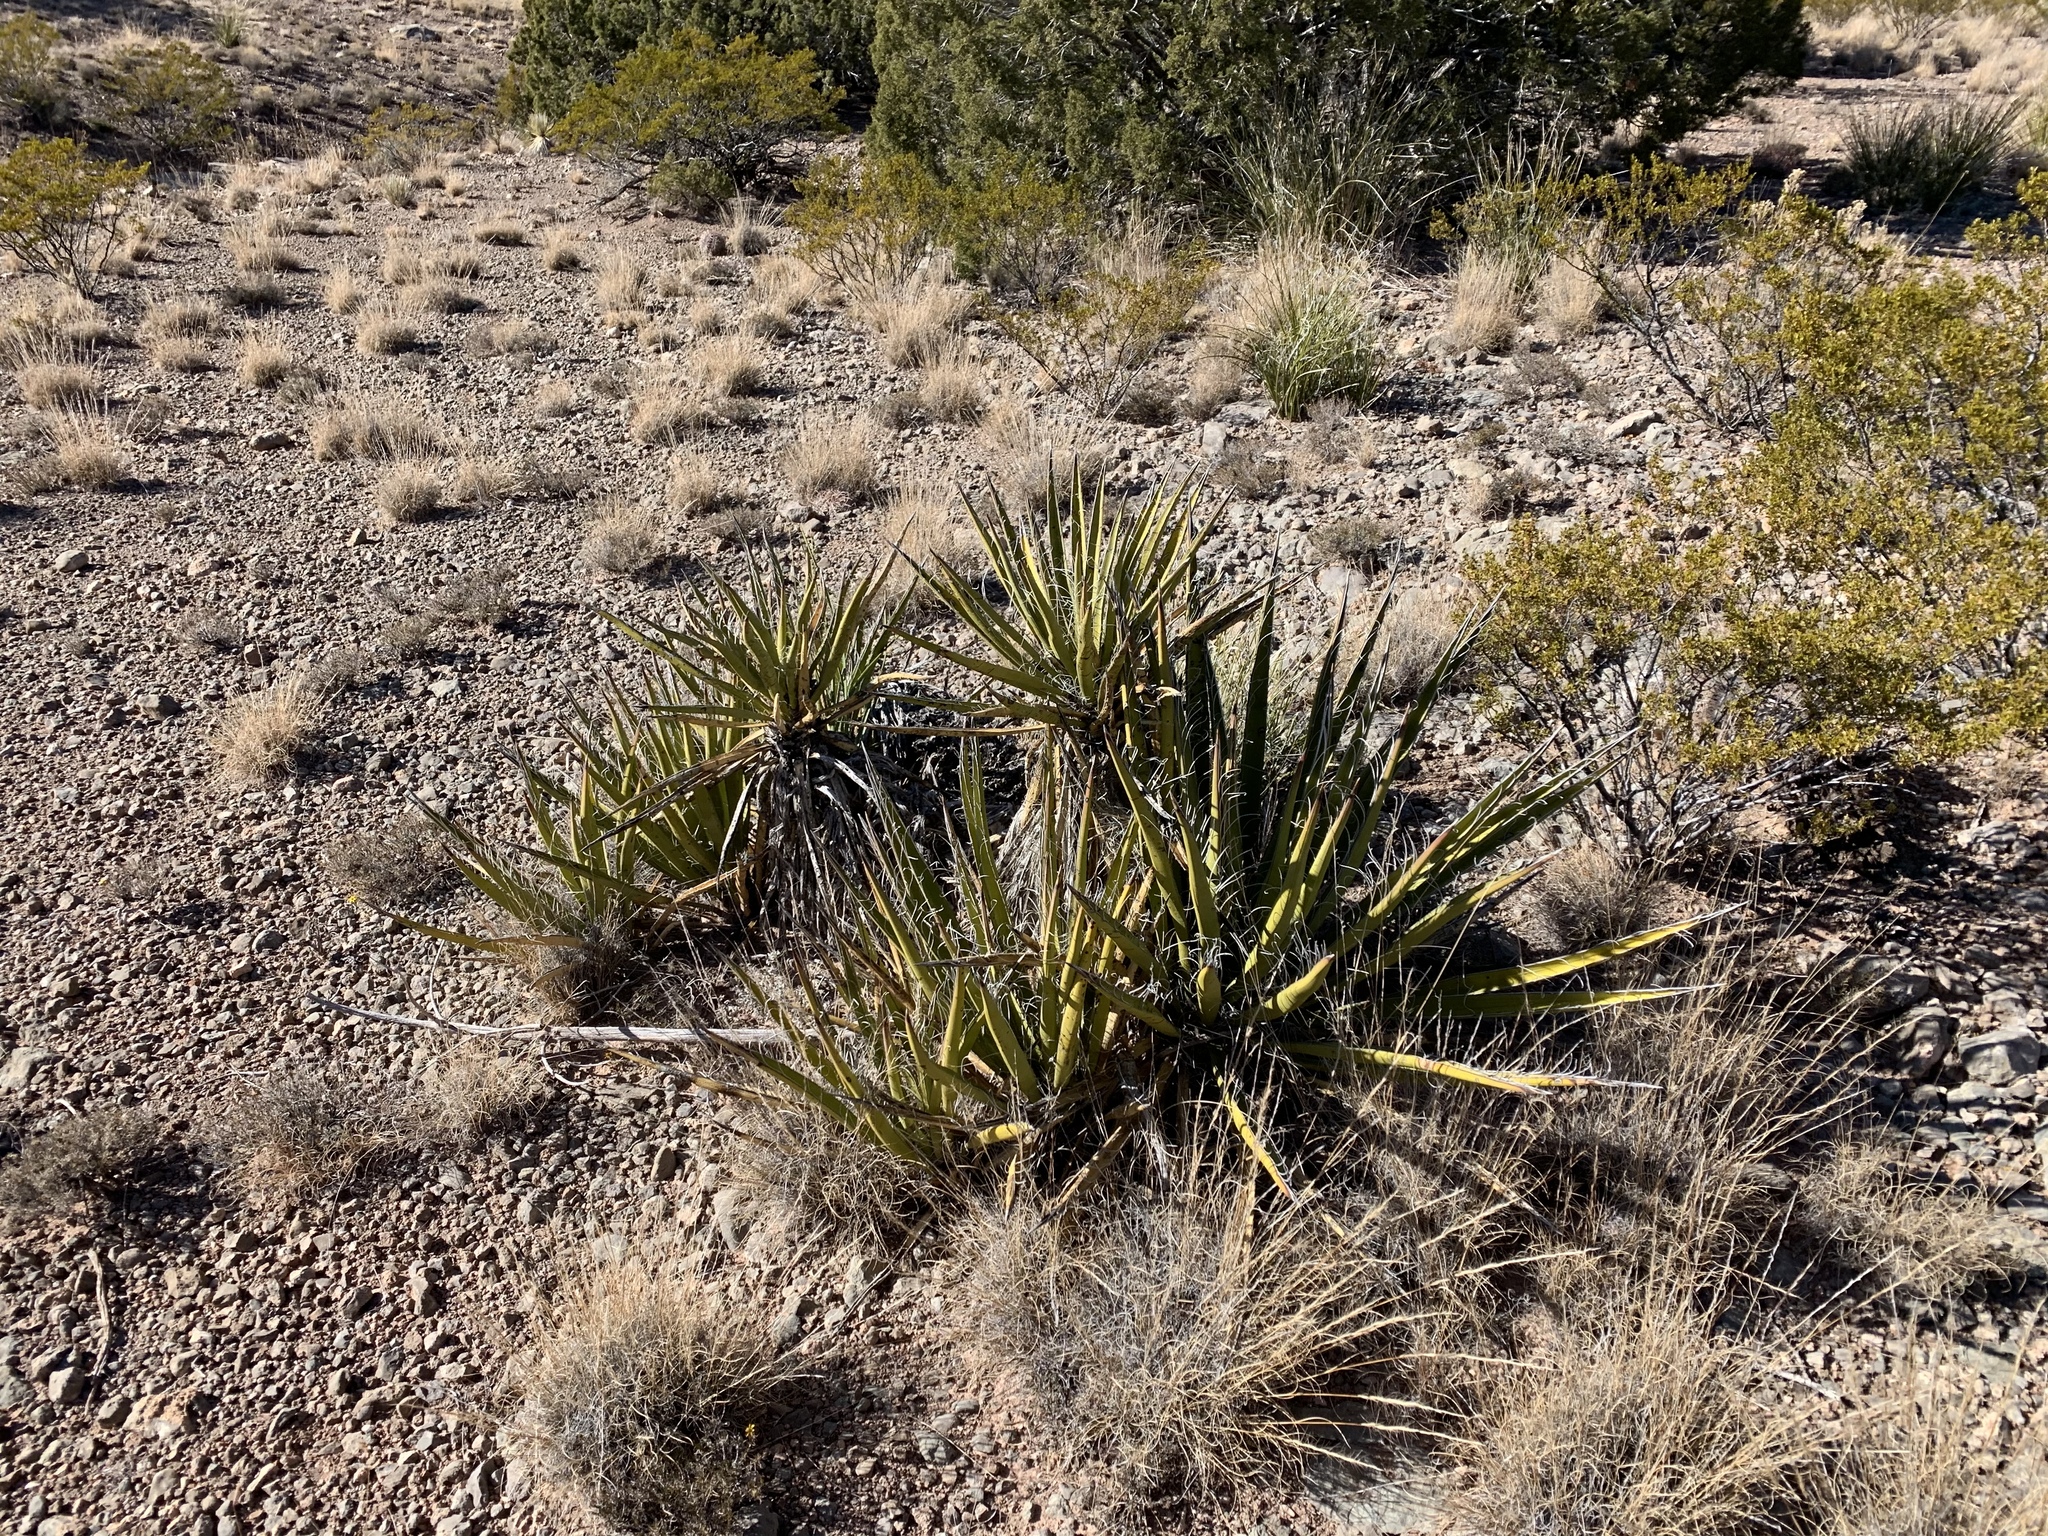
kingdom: Plantae
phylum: Tracheophyta
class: Liliopsida
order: Asparagales
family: Asparagaceae
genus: Yucca
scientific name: Yucca baccata
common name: Banana yucca
